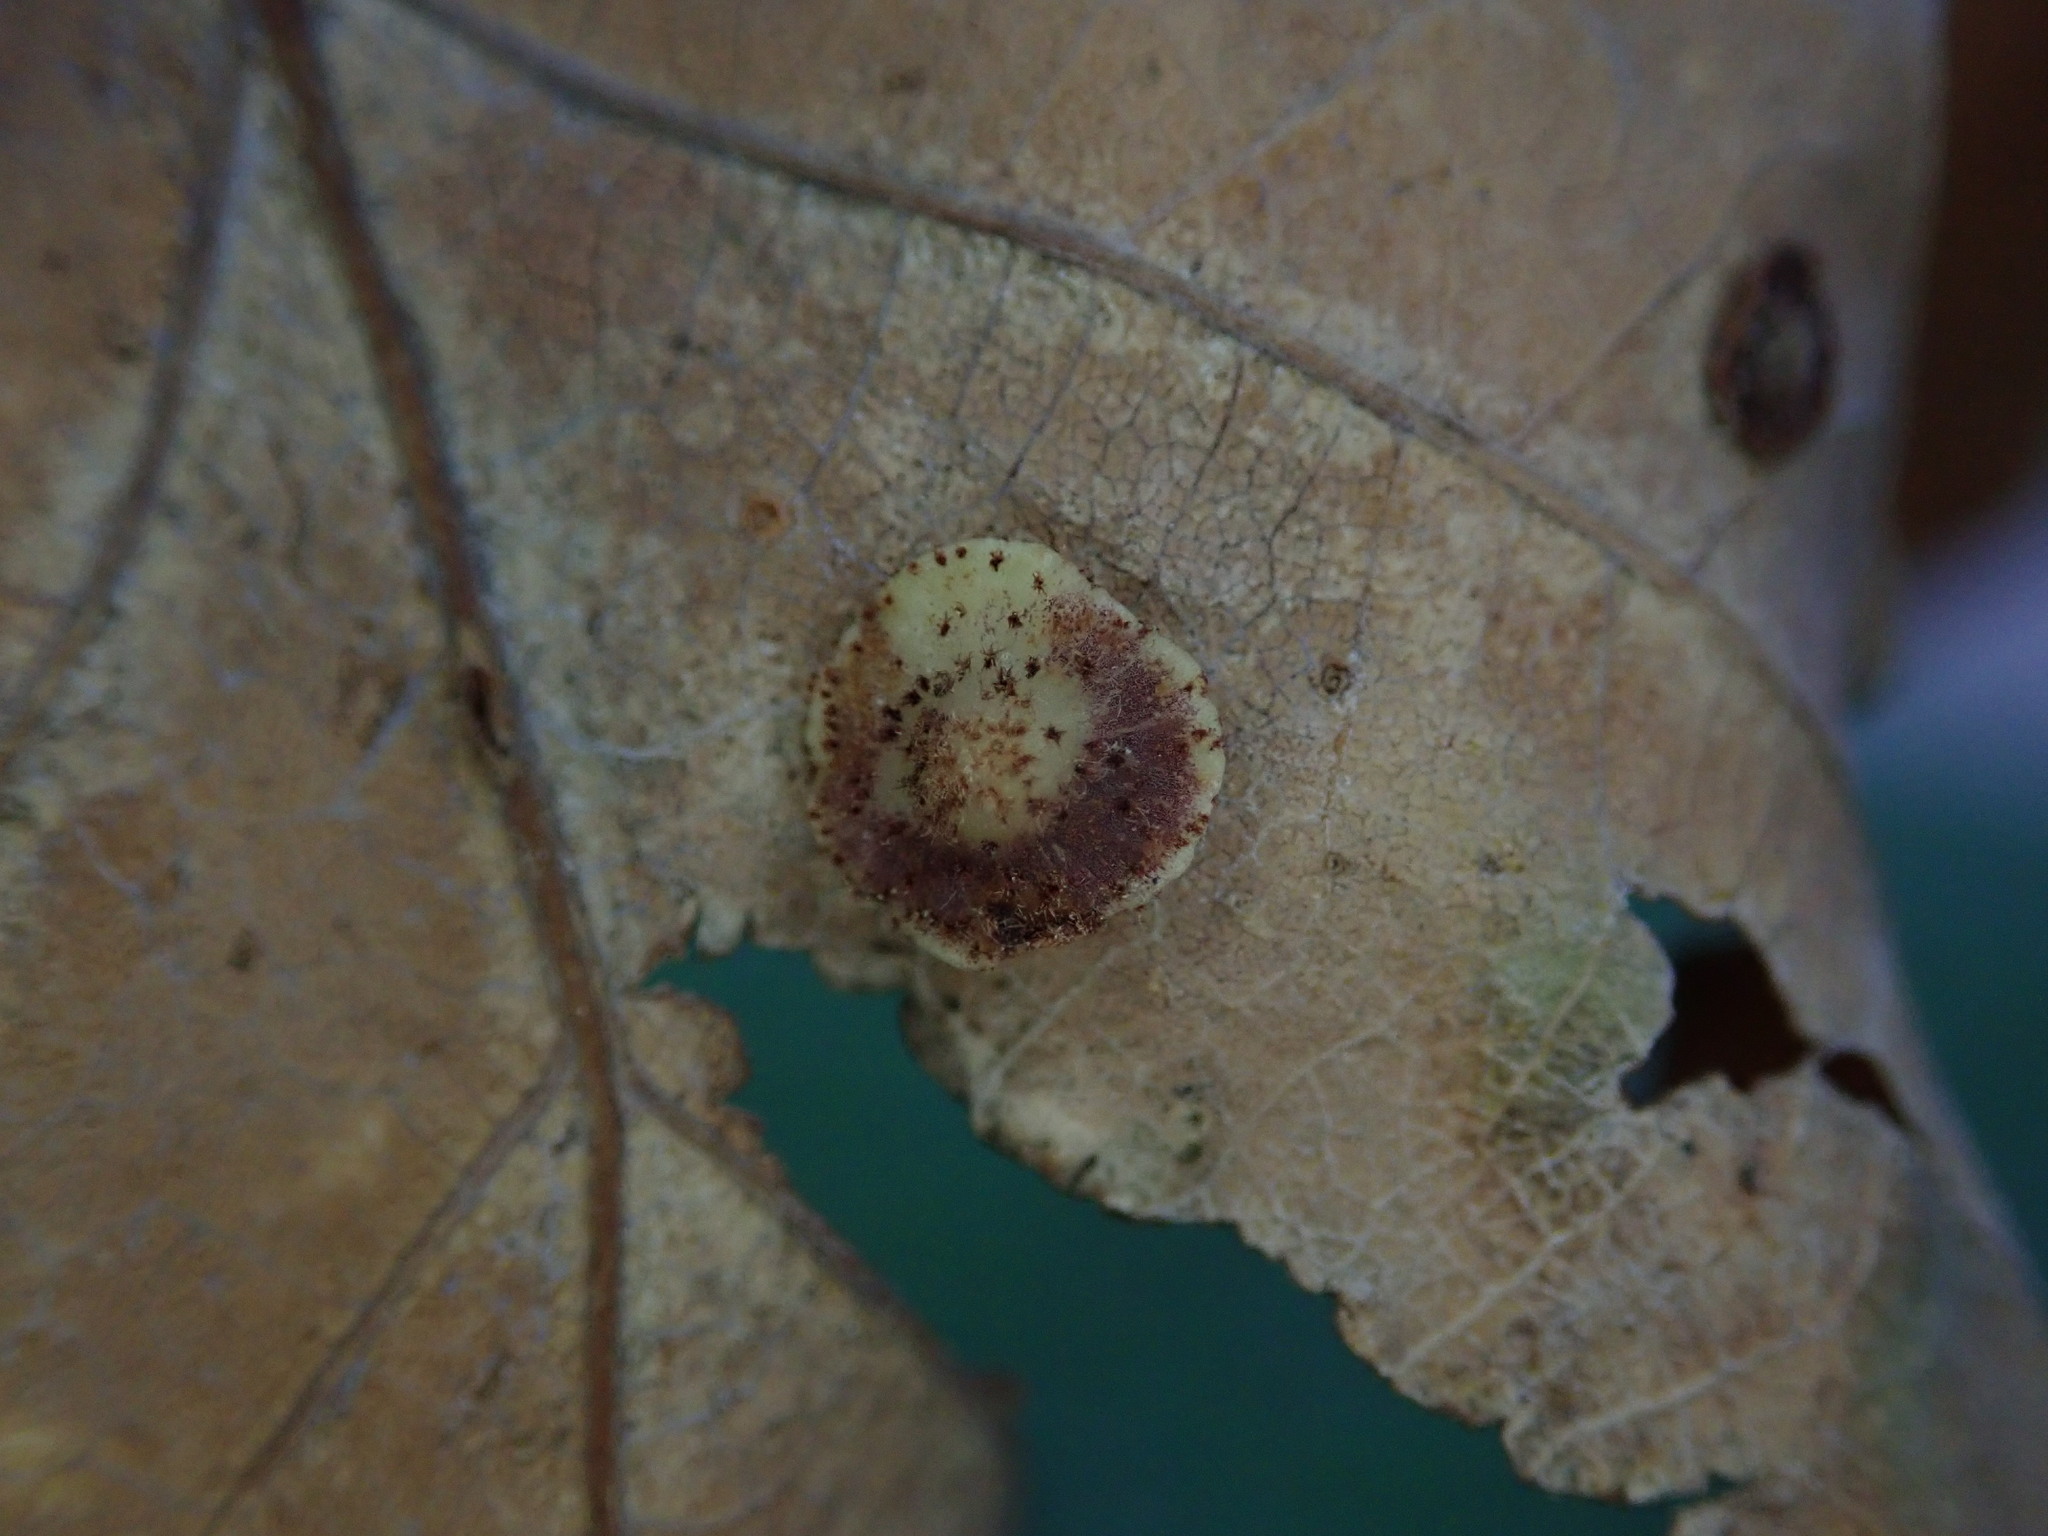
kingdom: Animalia
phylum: Arthropoda
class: Insecta
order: Hymenoptera
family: Cynipidae
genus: Neuroterus
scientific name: Neuroterus quercusbaccarum
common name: Common spangle gall
